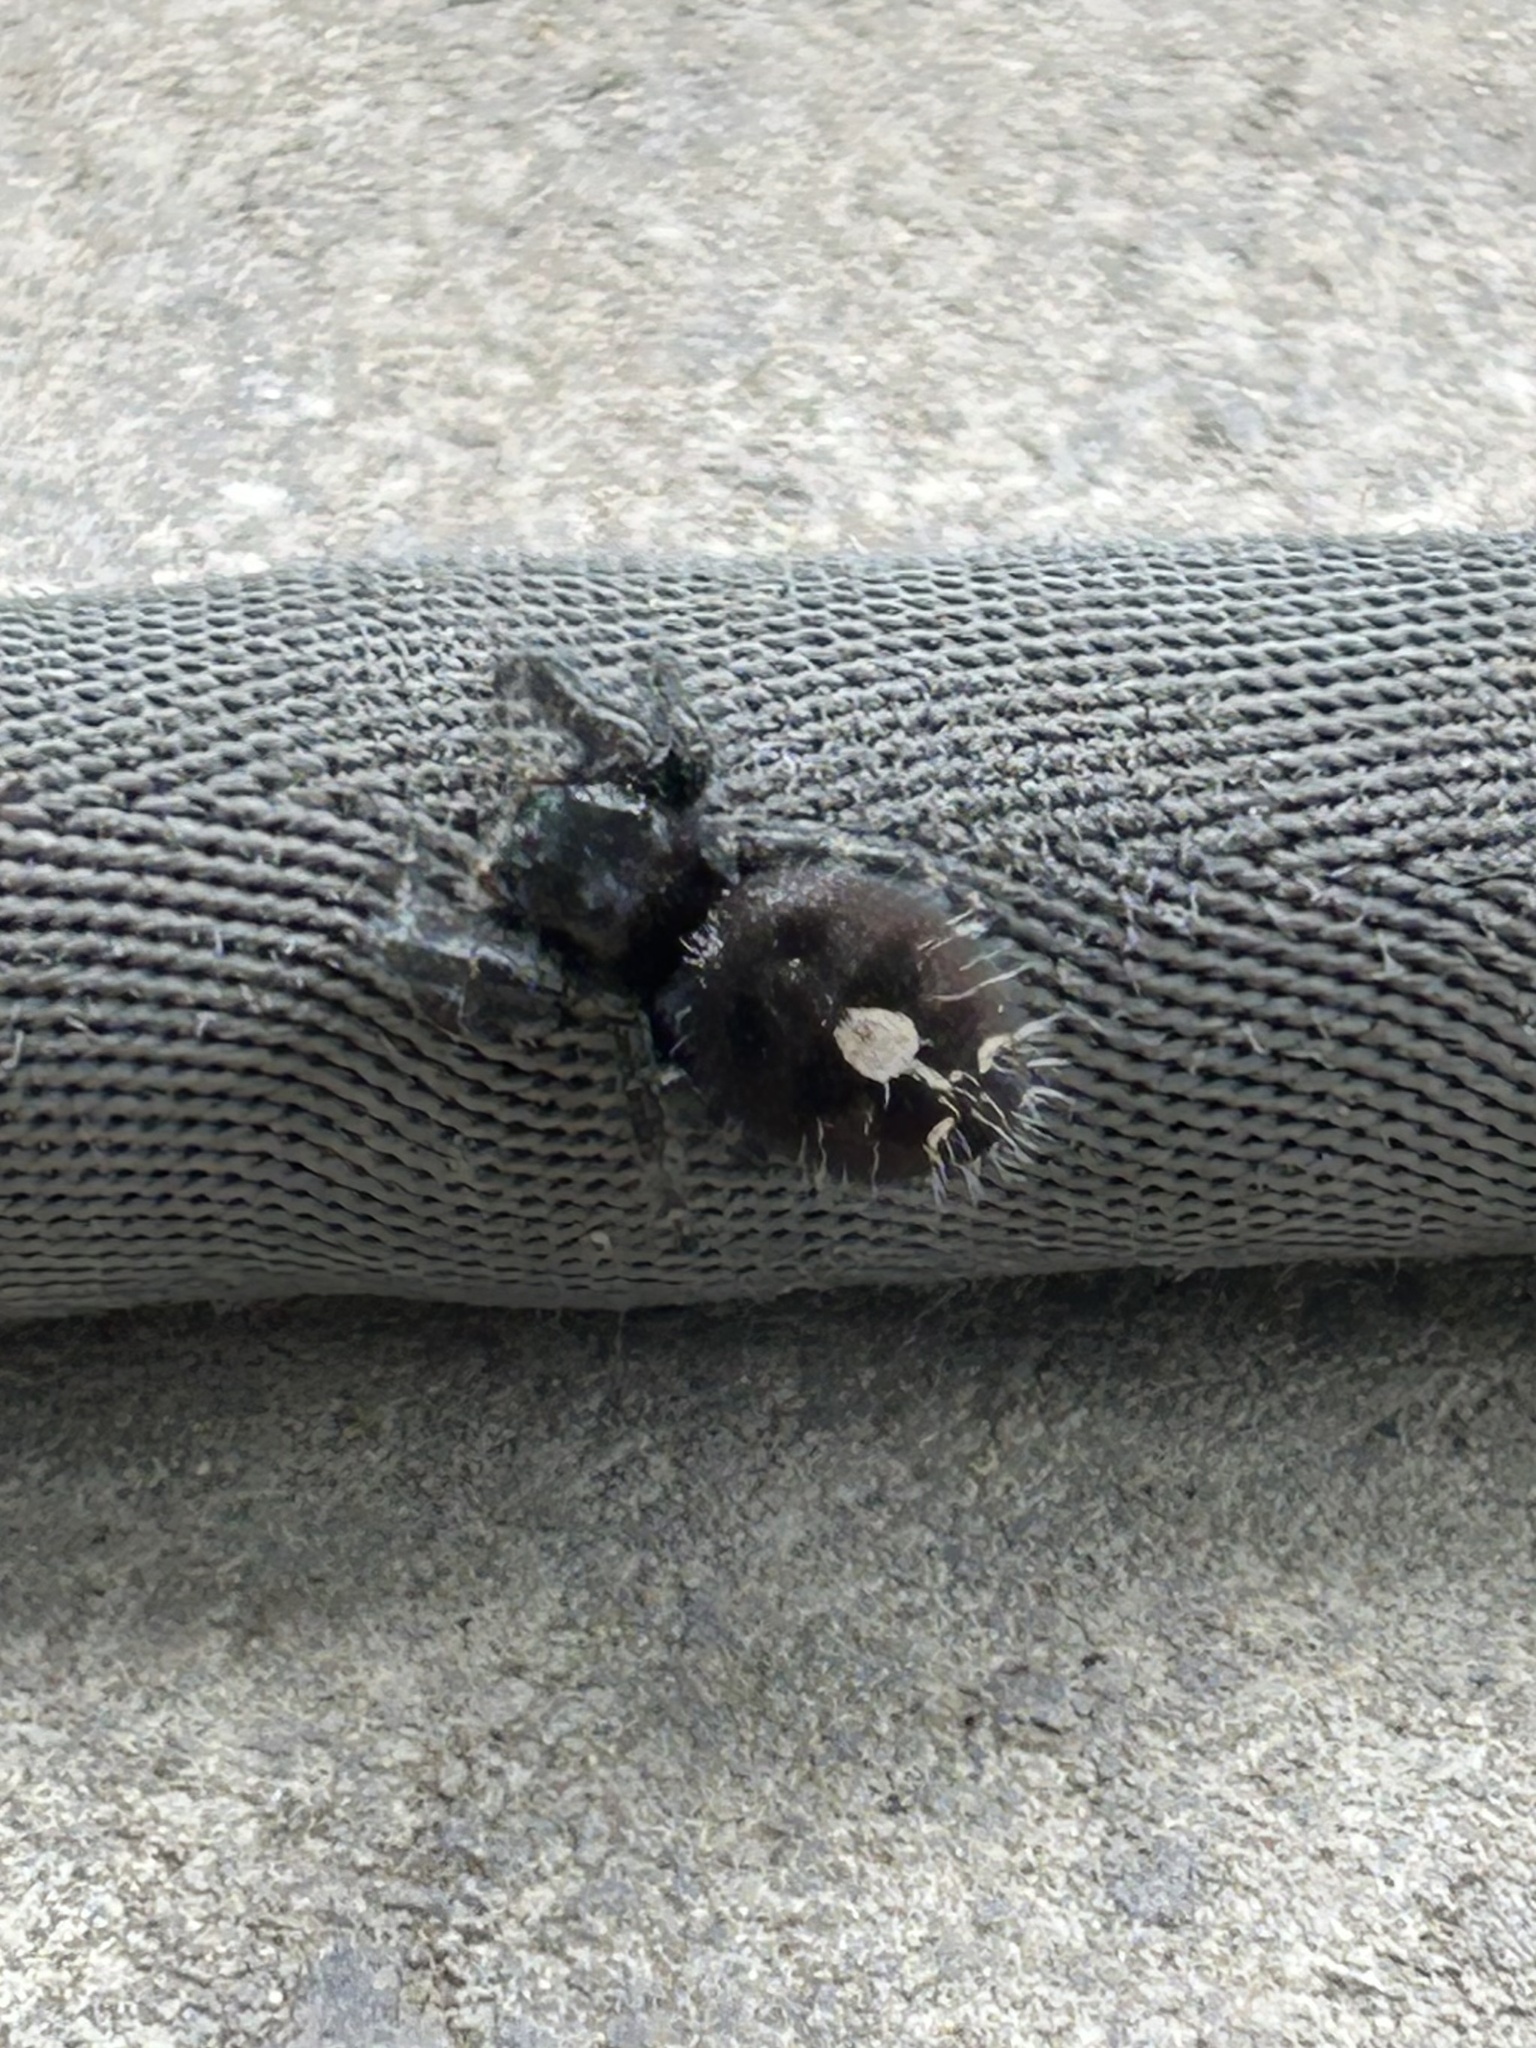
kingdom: Animalia
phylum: Arthropoda
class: Arachnida
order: Araneae
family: Salticidae
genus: Phidippus
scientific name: Phidippus audax
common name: Bold jumper
